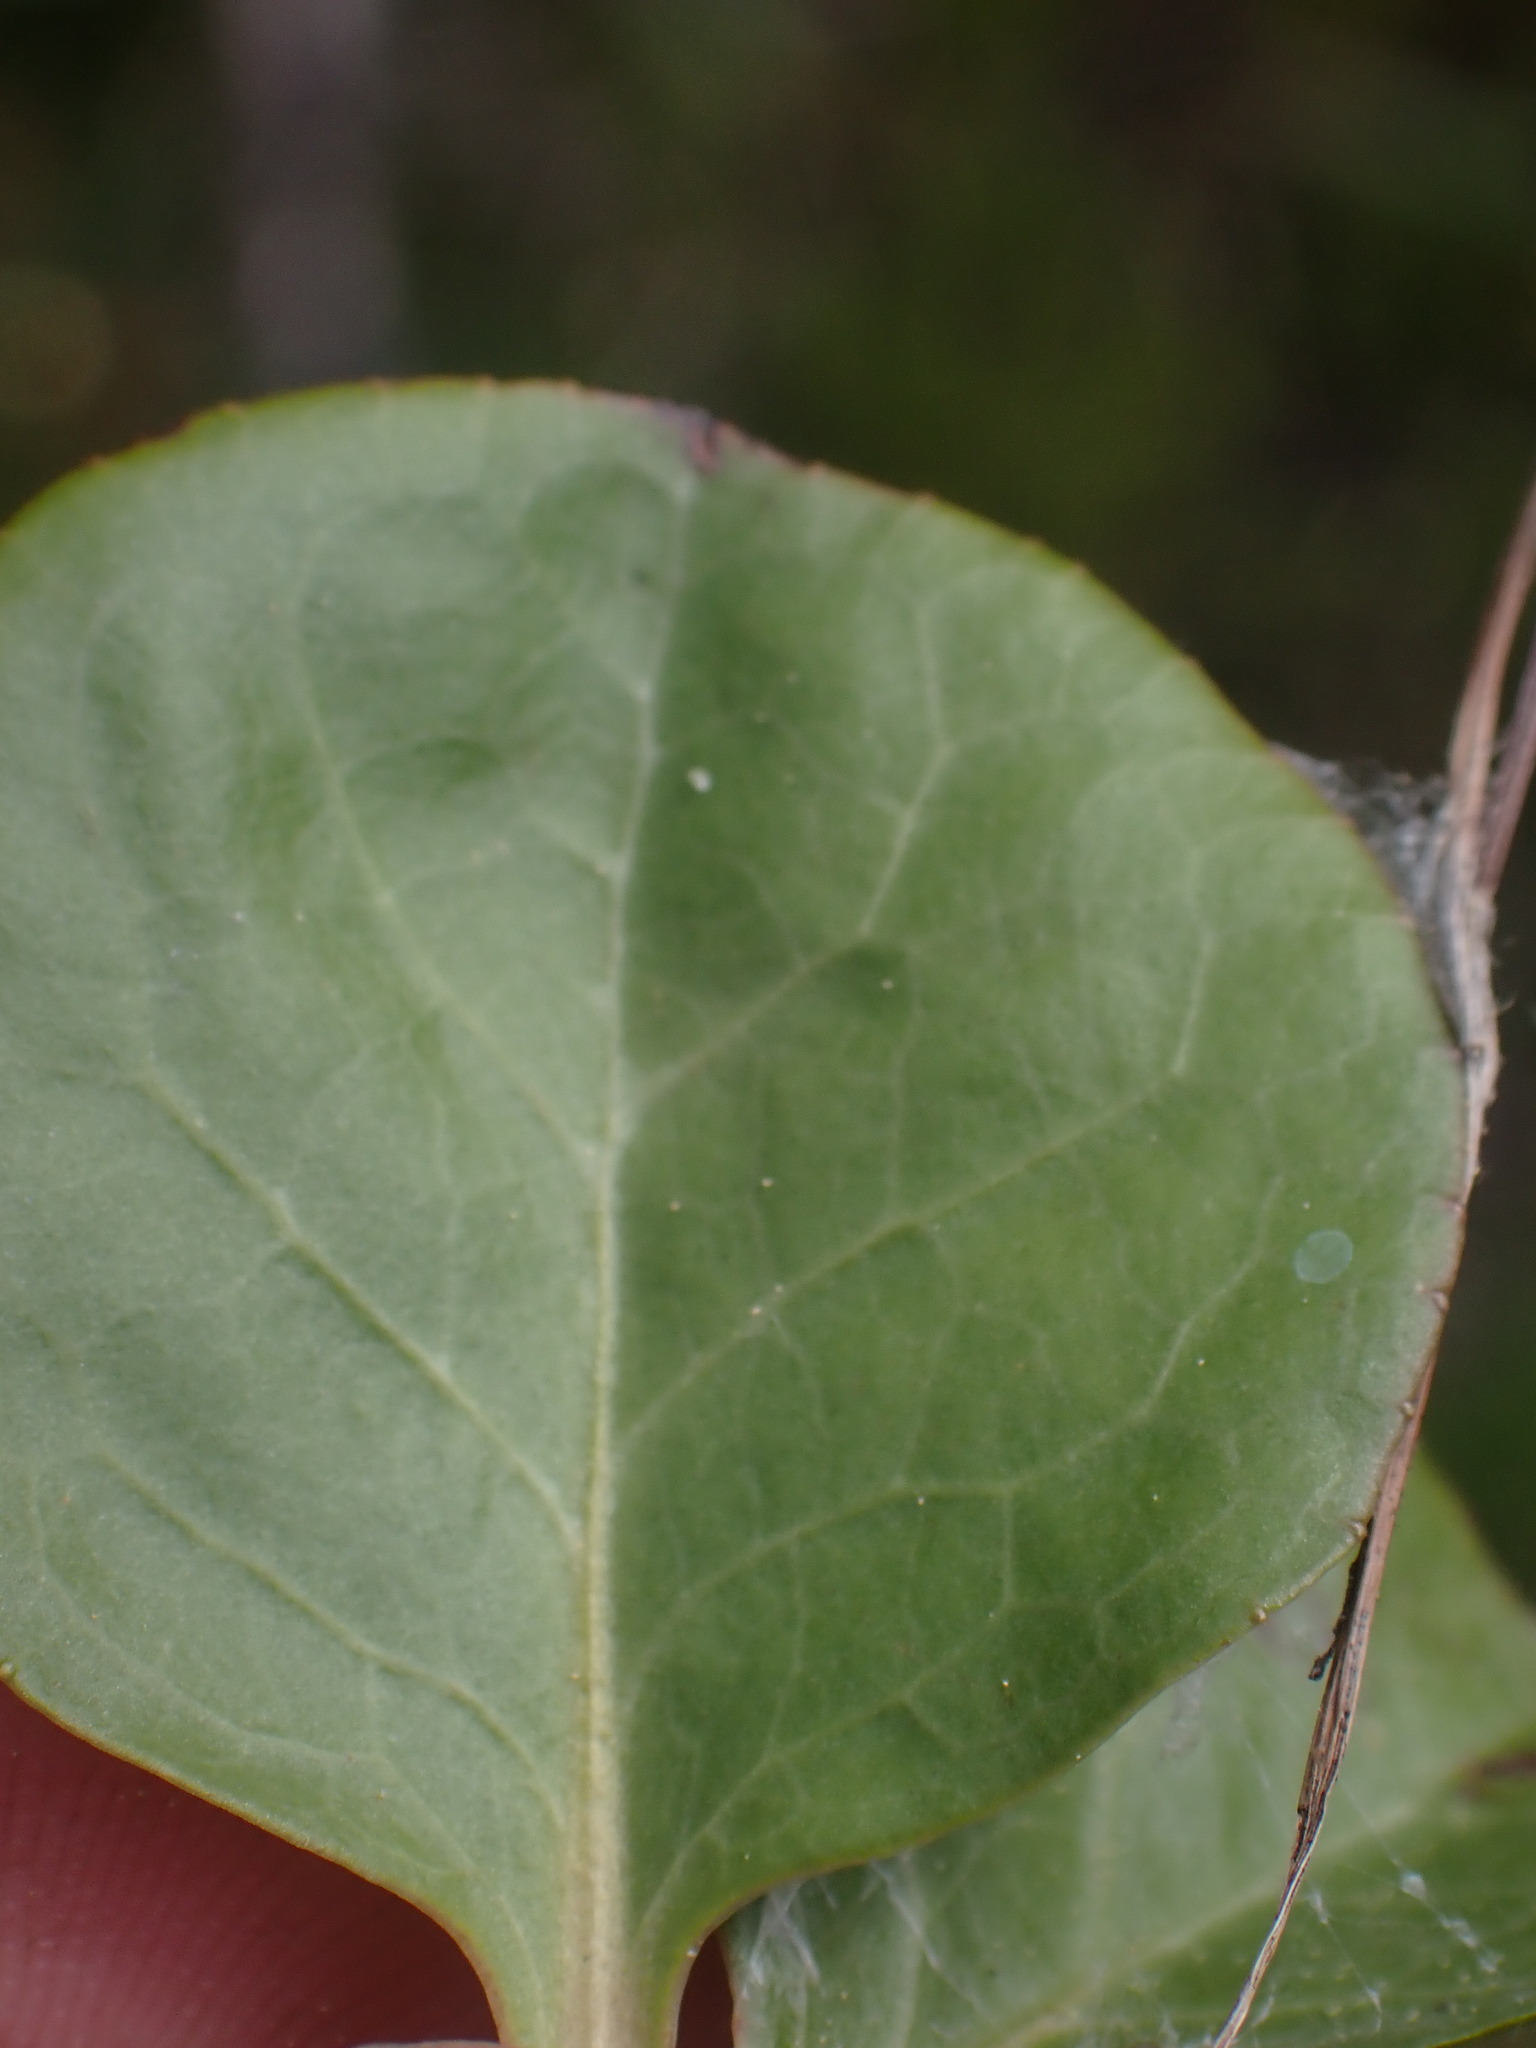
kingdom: Plantae
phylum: Tracheophyta
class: Magnoliopsida
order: Ericales
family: Ericaceae
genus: Pyrola
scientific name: Pyrola asarifolia
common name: Bog wintergreen
